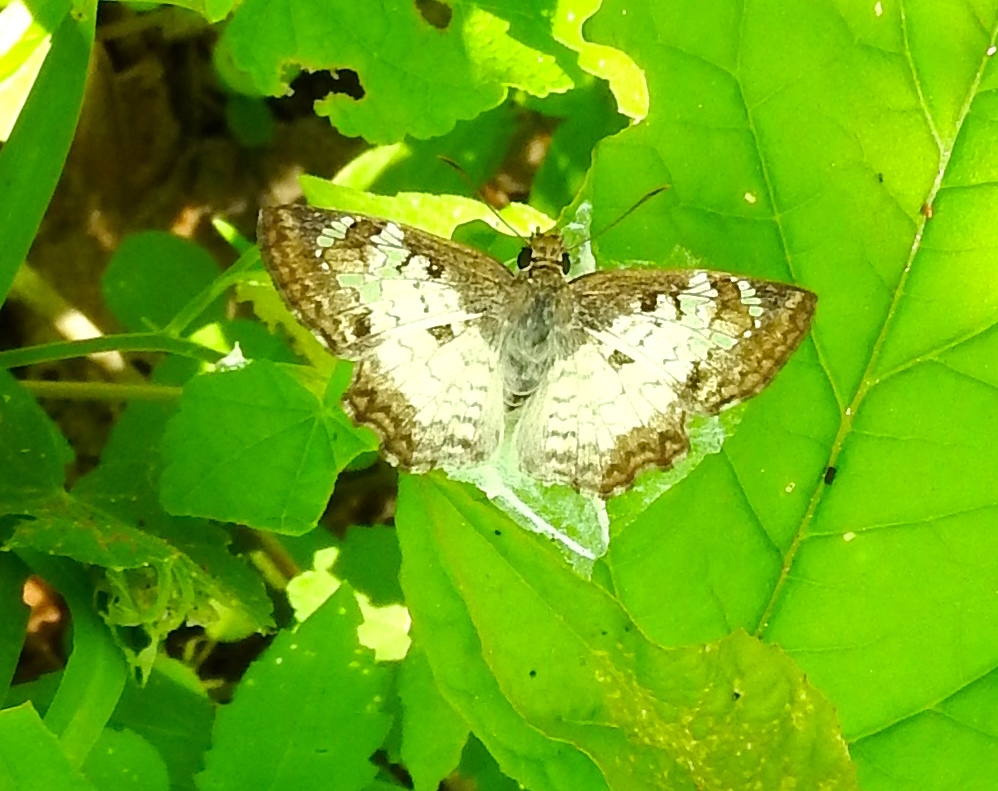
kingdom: Animalia
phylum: Arthropoda
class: Insecta
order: Lepidoptera
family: Hesperiidae
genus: Antigonus
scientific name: Antigonus emorsa
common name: White spurwing
